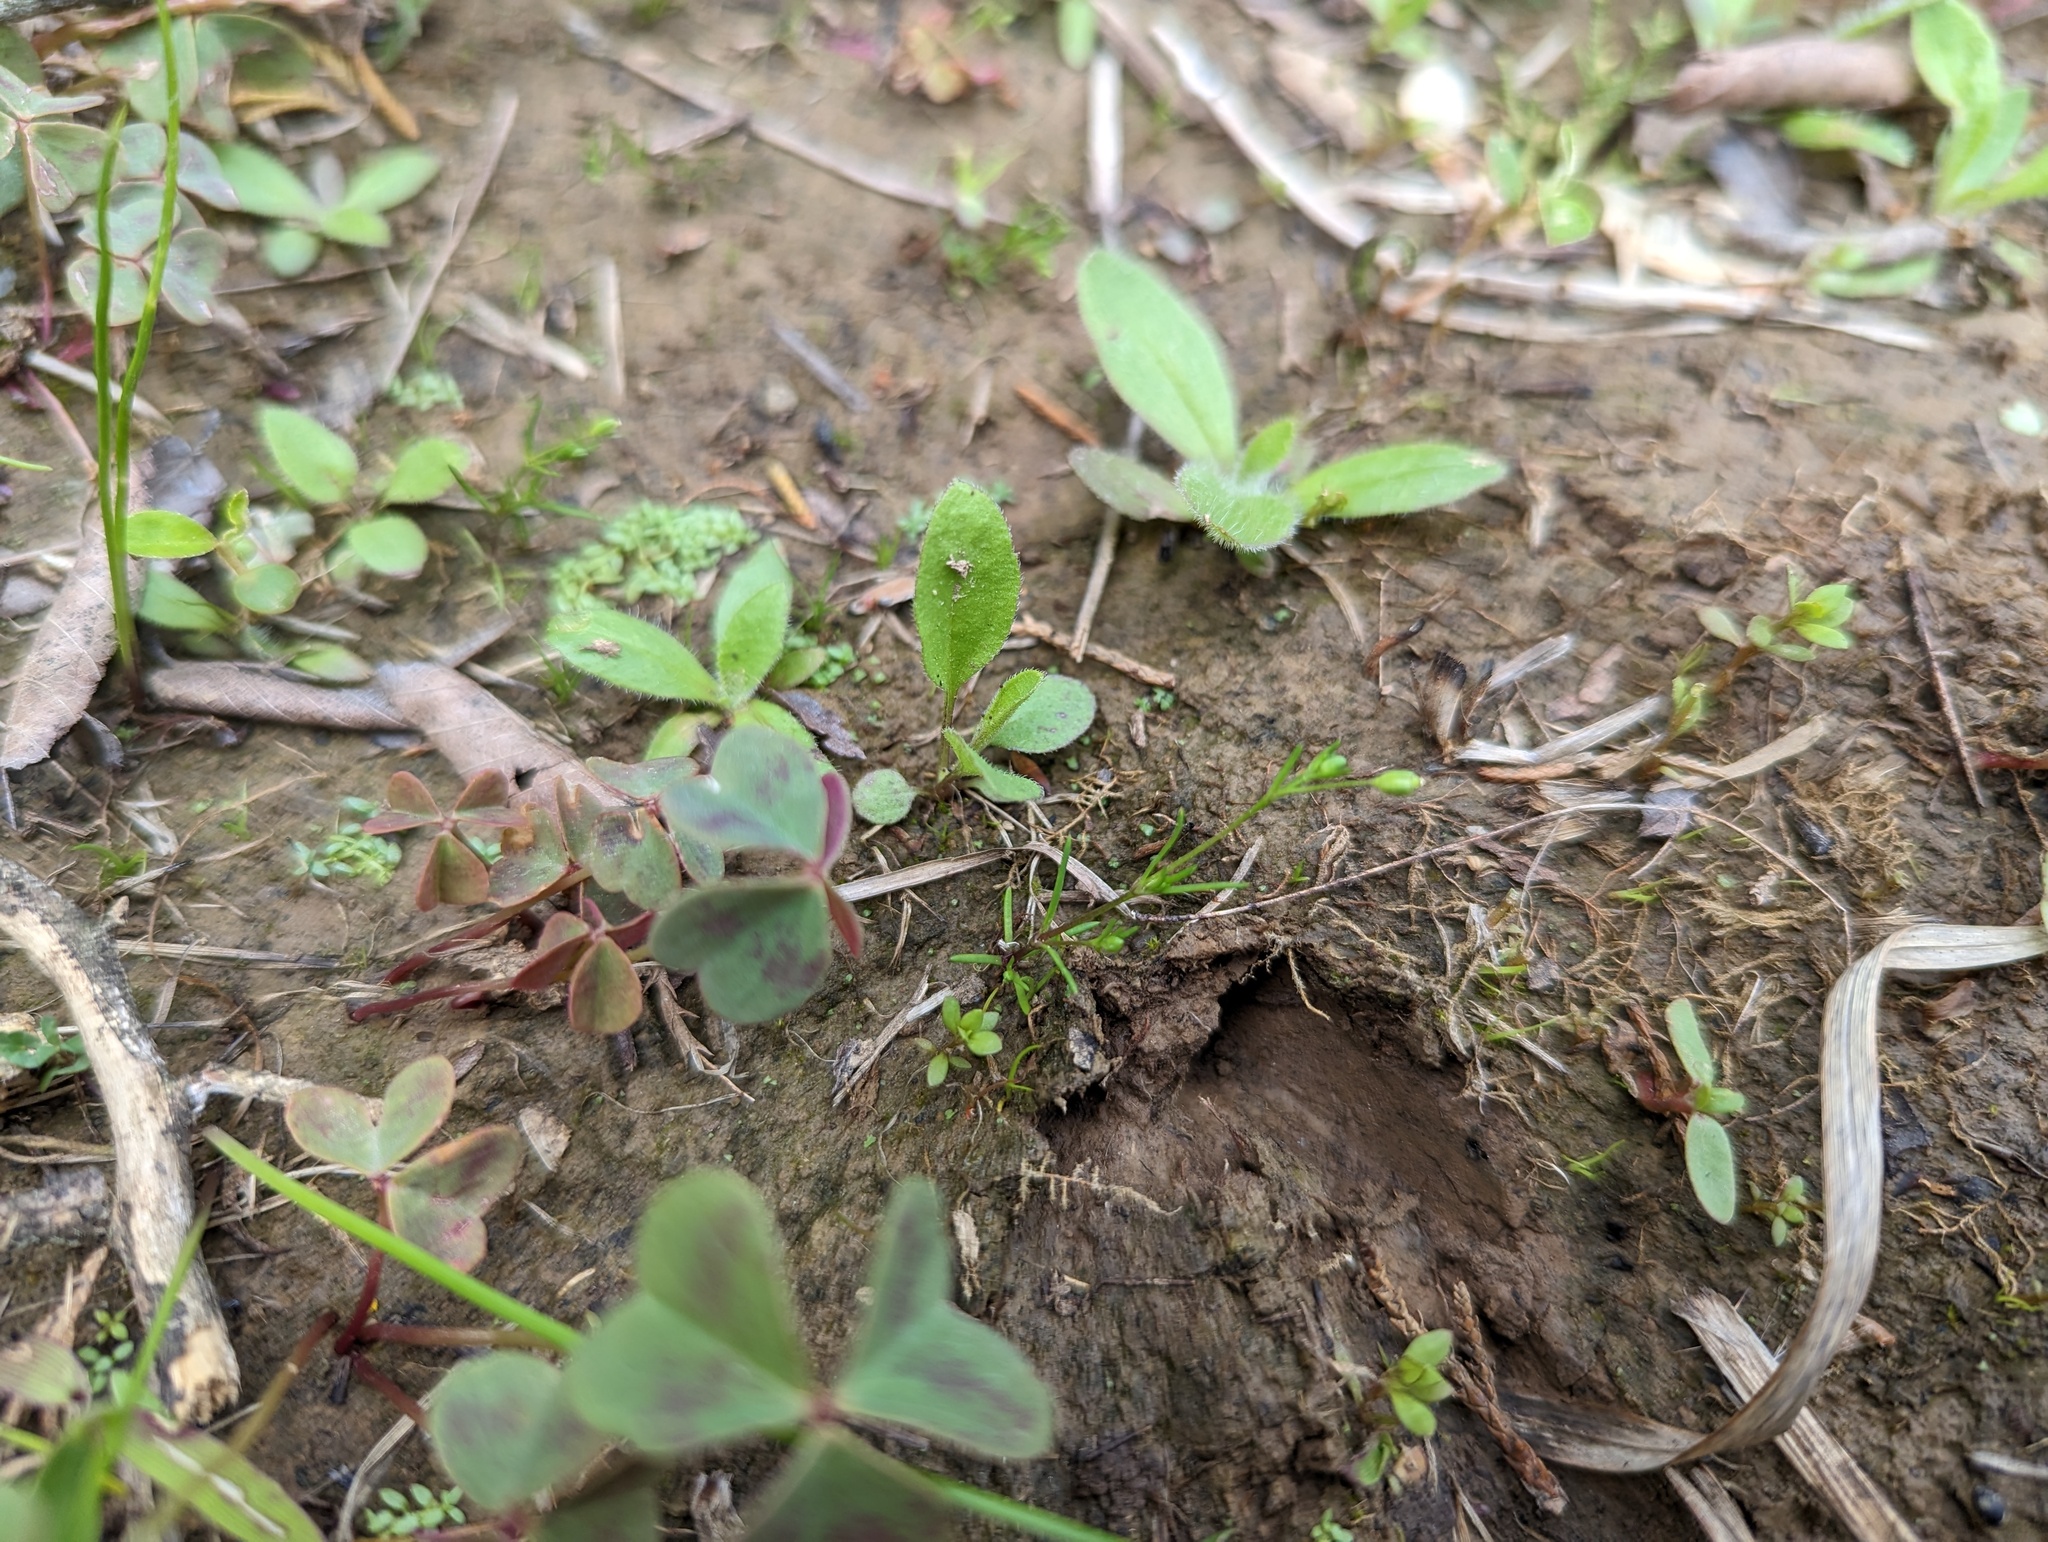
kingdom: Plantae
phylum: Tracheophyta
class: Magnoliopsida
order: Caryophyllales
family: Caryophyllaceae
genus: Sagina
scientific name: Sagina decumbens
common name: Decumbent pearlwort
